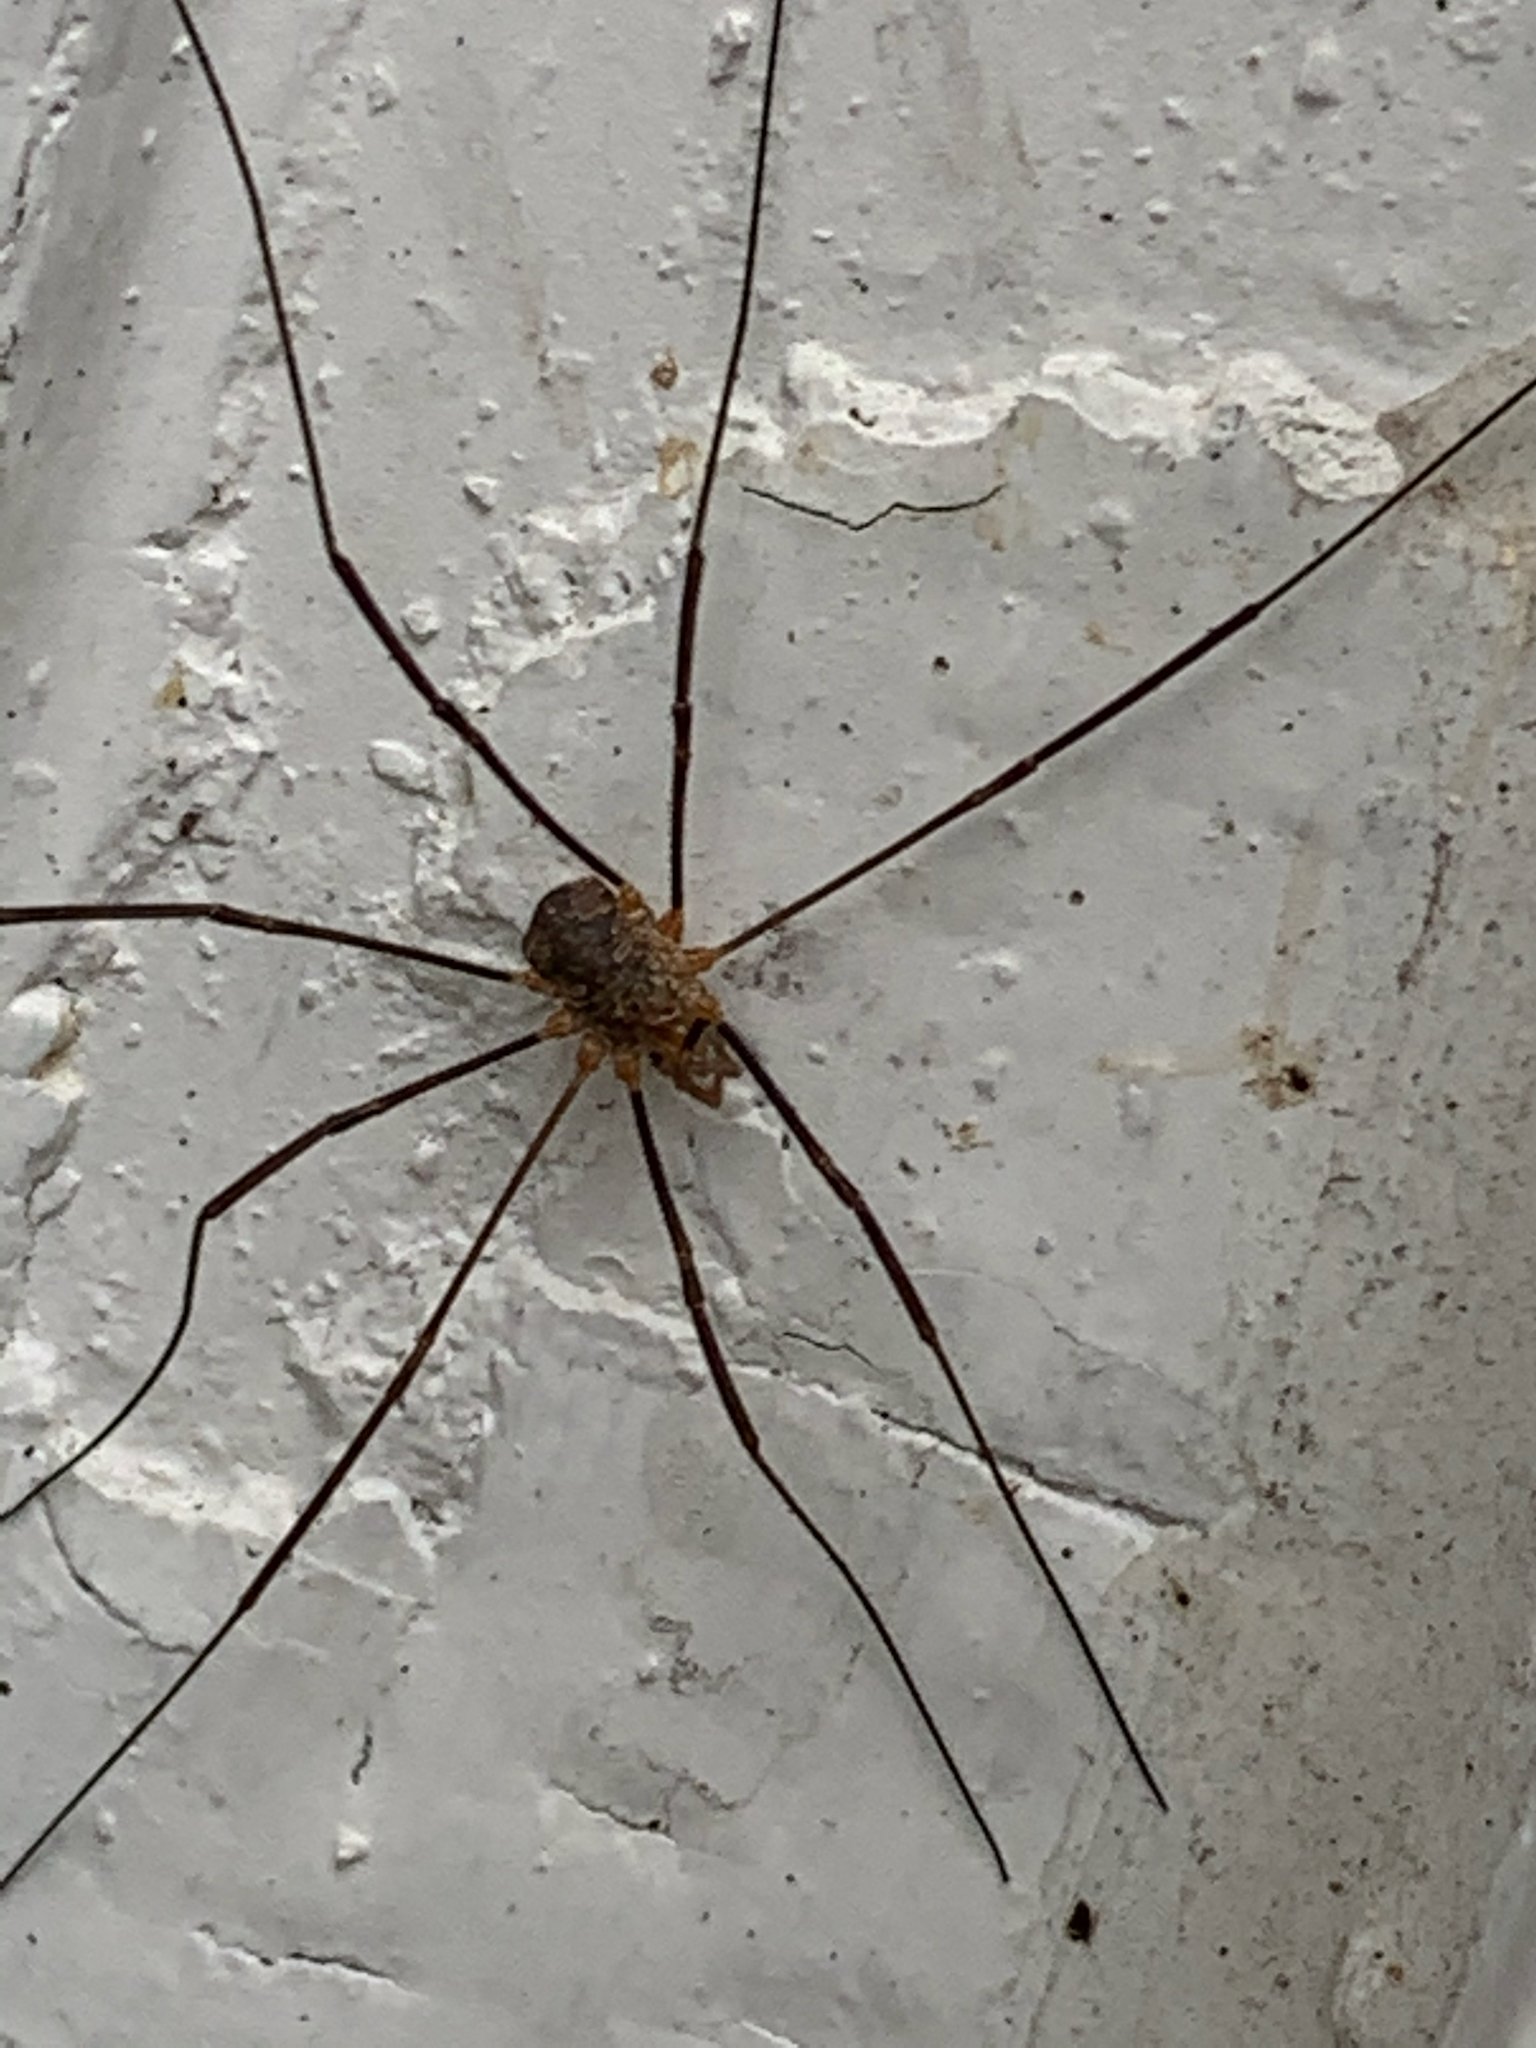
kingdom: Animalia
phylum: Arthropoda
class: Arachnida
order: Opiliones
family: Phalangiidae
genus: Phalangium
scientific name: Phalangium opilio
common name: Daddy longleg
